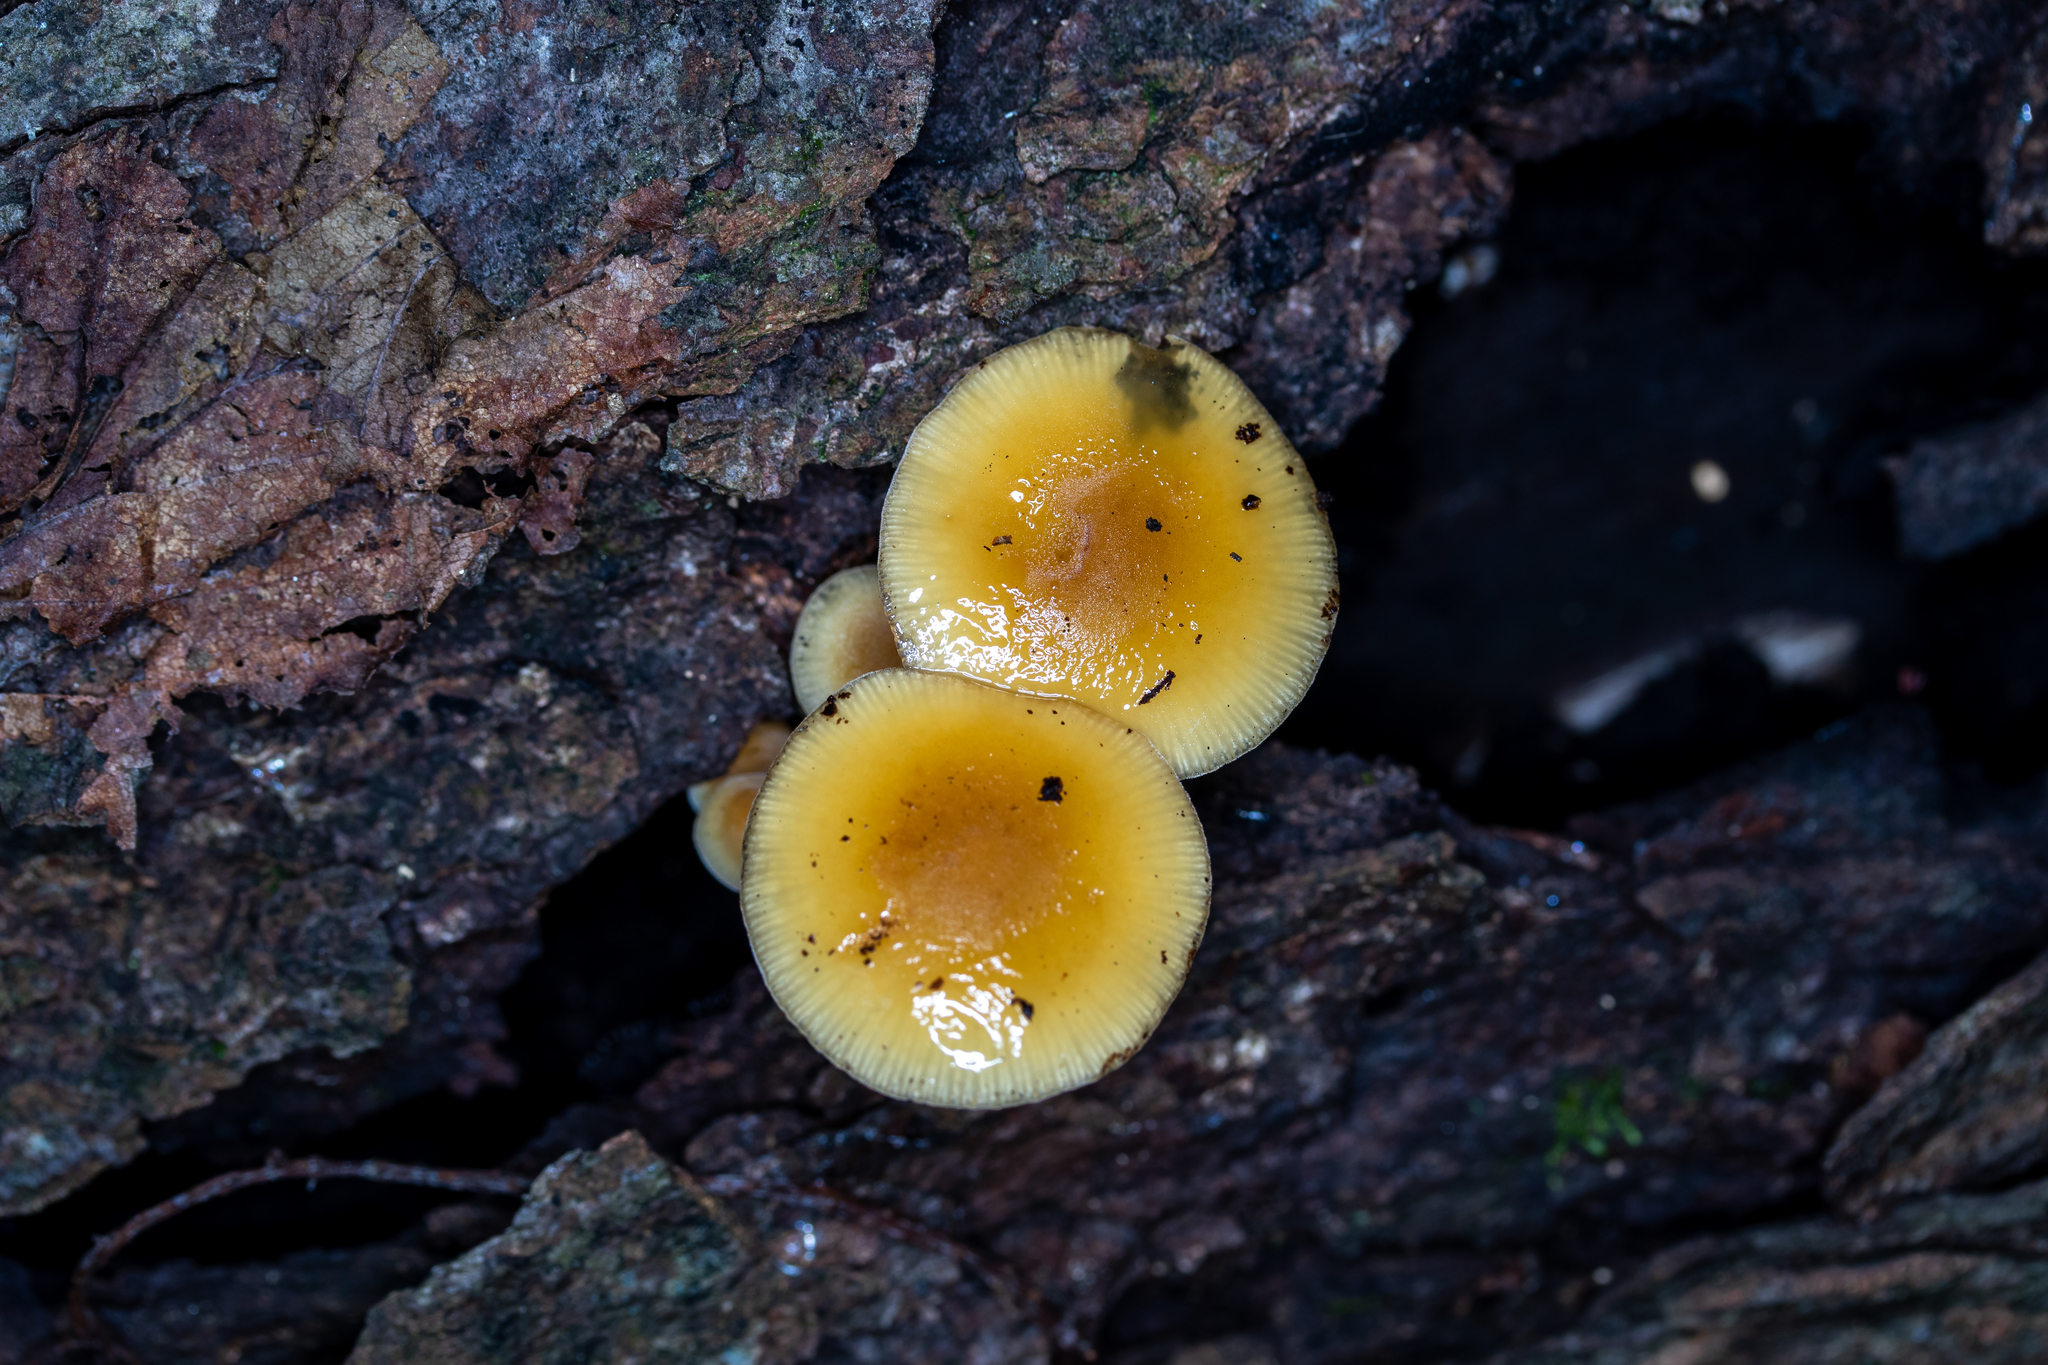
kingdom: Fungi
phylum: Basidiomycota
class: Agaricomycetes
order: Agaricales
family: Physalacriaceae
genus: Flammulina
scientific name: Flammulina velutipes
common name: Velvet shank
